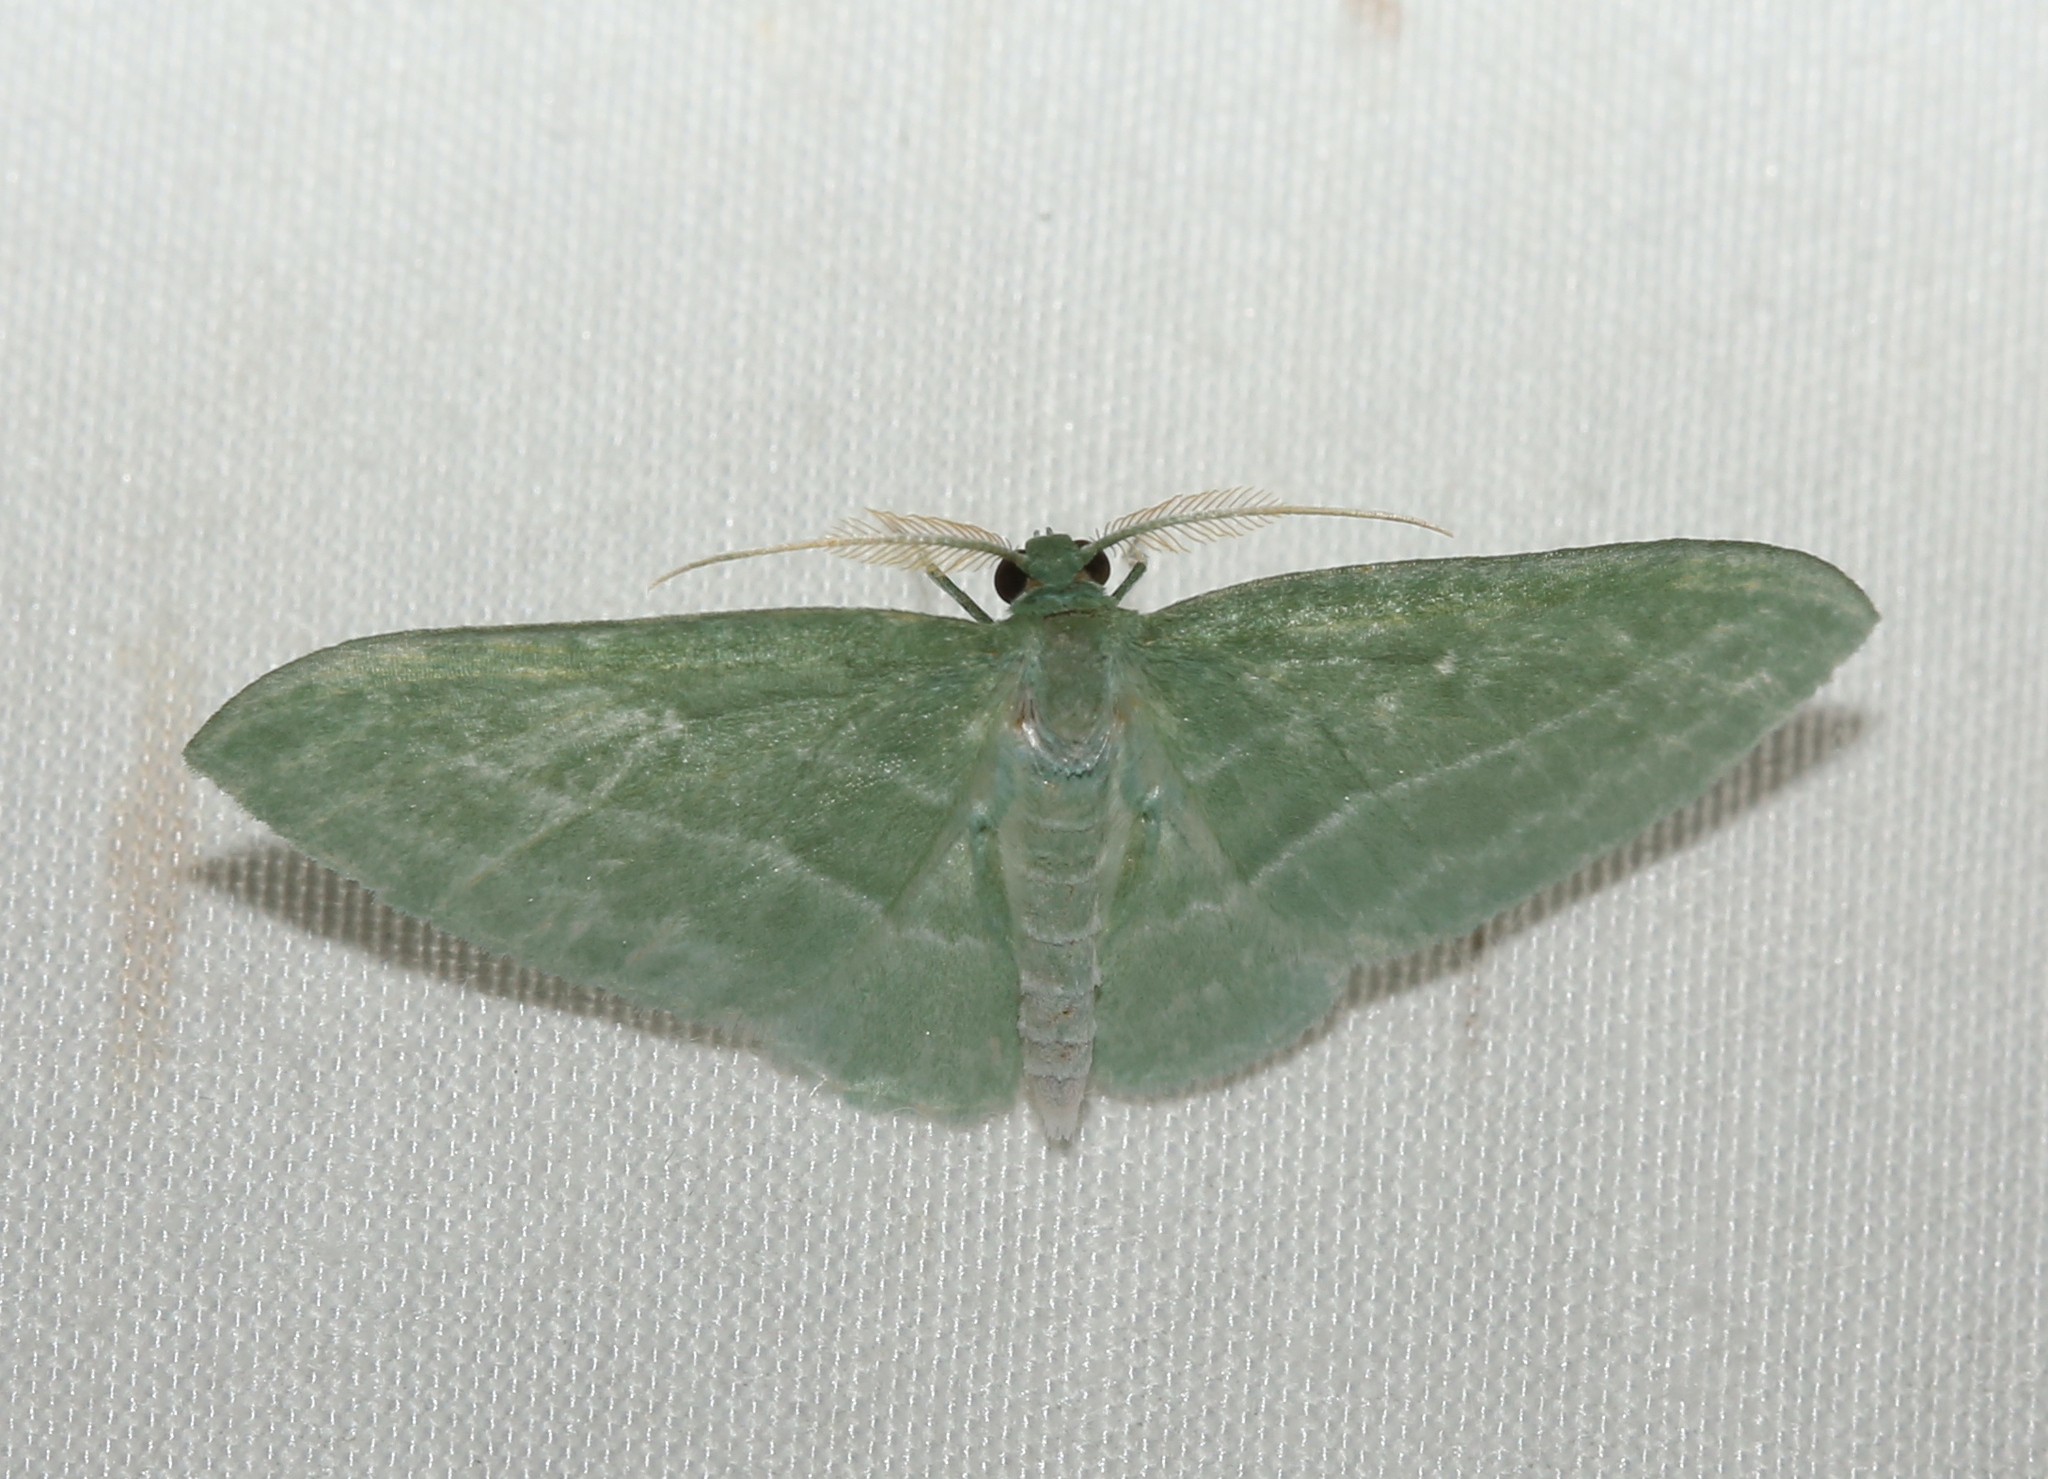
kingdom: Animalia
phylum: Arthropoda
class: Insecta
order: Lepidoptera
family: Geometridae
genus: Dyspteris
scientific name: Dyspteris abortivaria
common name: Bad-wing
